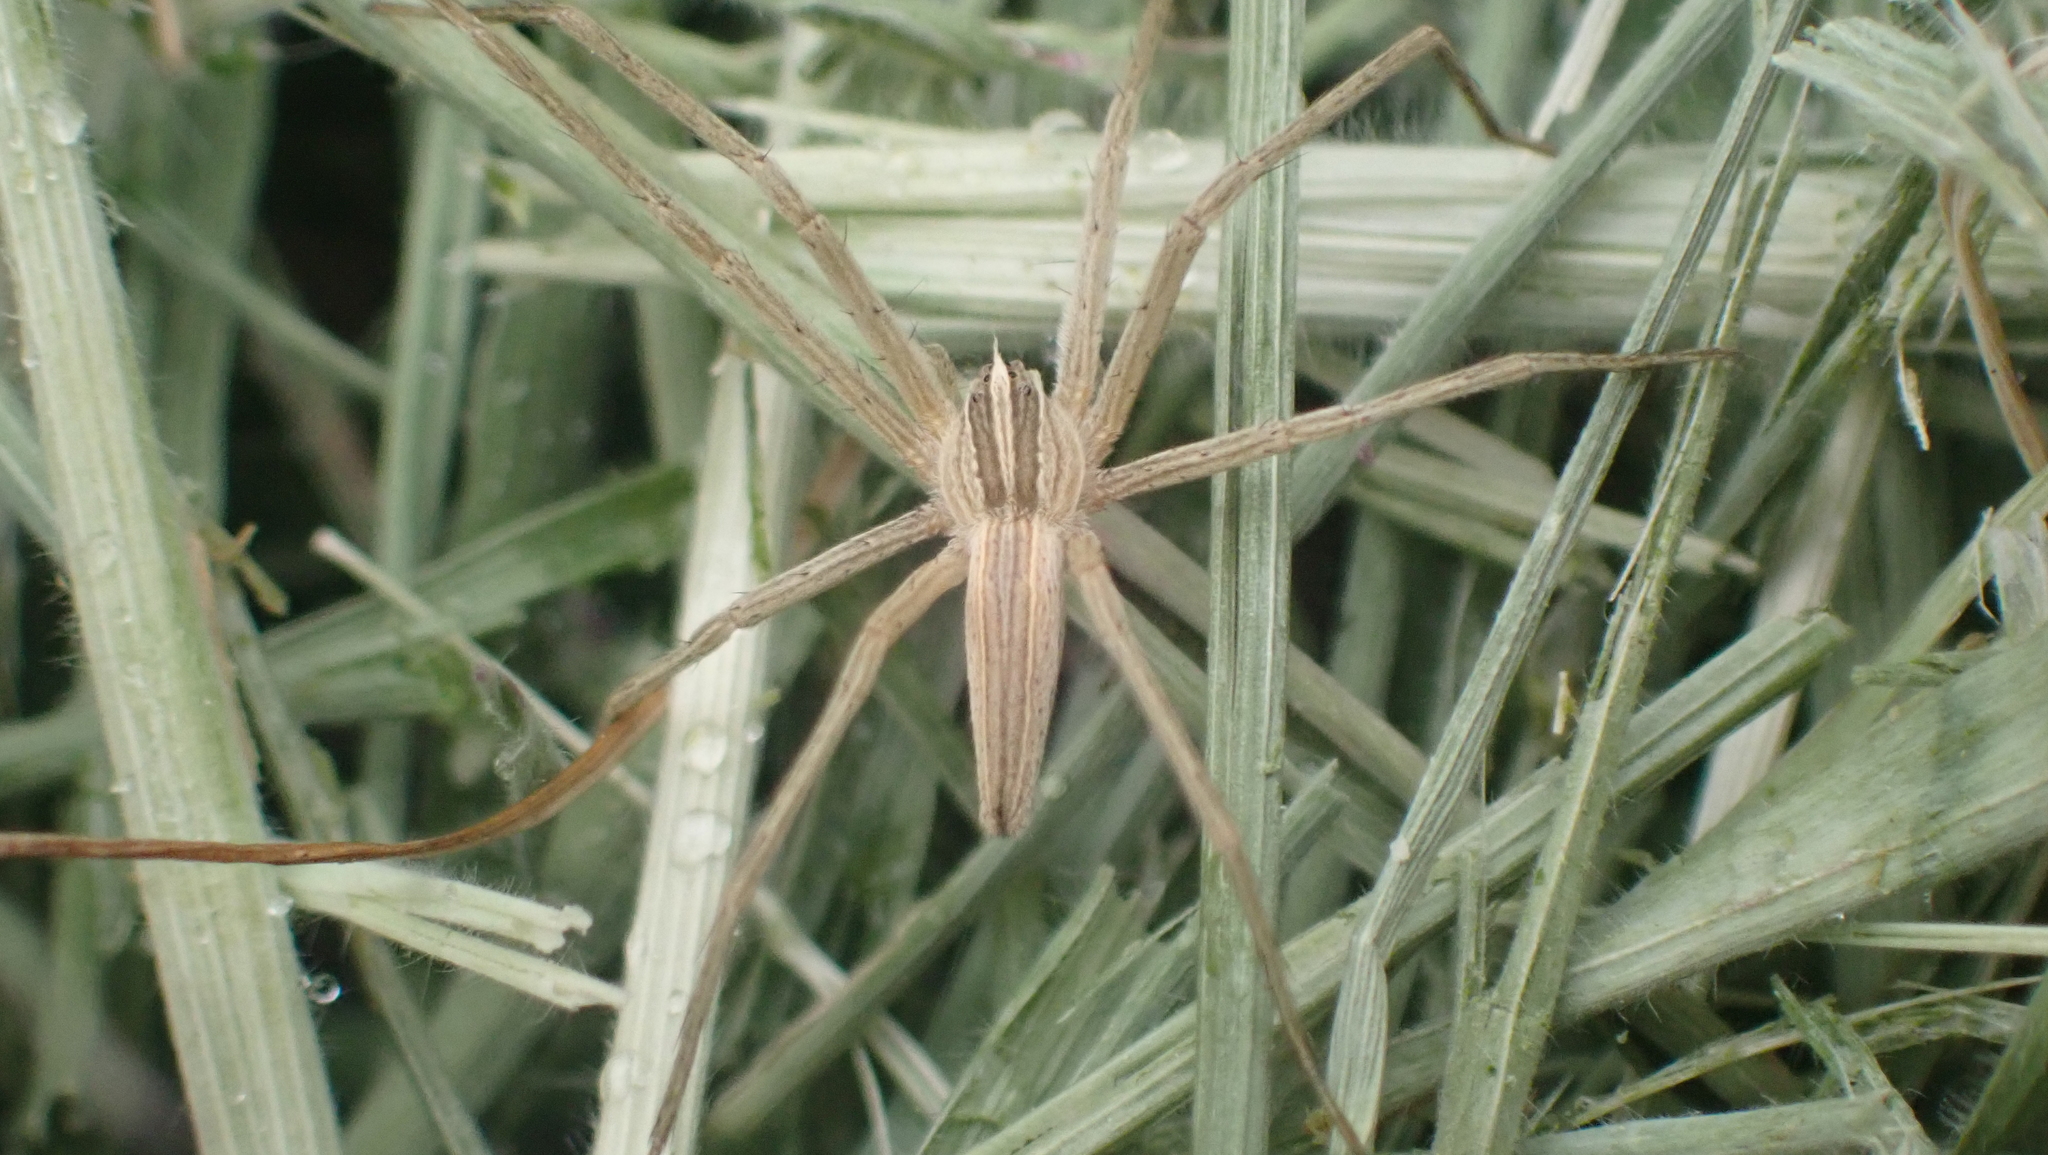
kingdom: Animalia
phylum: Arthropoda
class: Arachnida
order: Araneae
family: Pisauridae
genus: Pisaurina
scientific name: Pisaurina dubia
